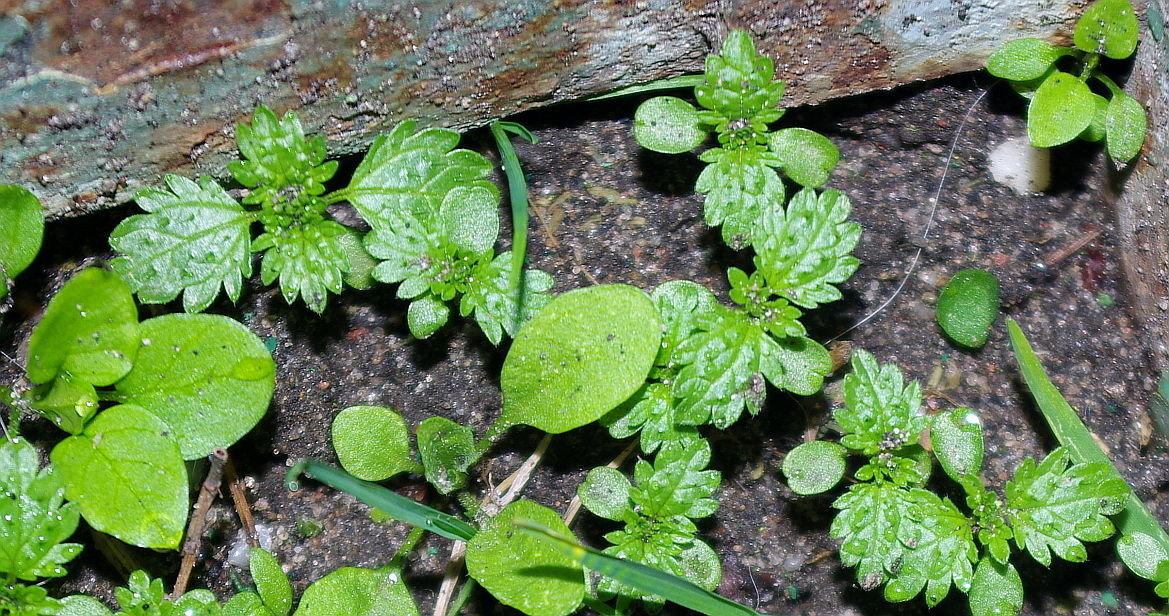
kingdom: Plantae
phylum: Tracheophyta
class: Magnoliopsida
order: Rosales
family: Urticaceae
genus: Urtica
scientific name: Urtica urens
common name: Dwarf nettle
